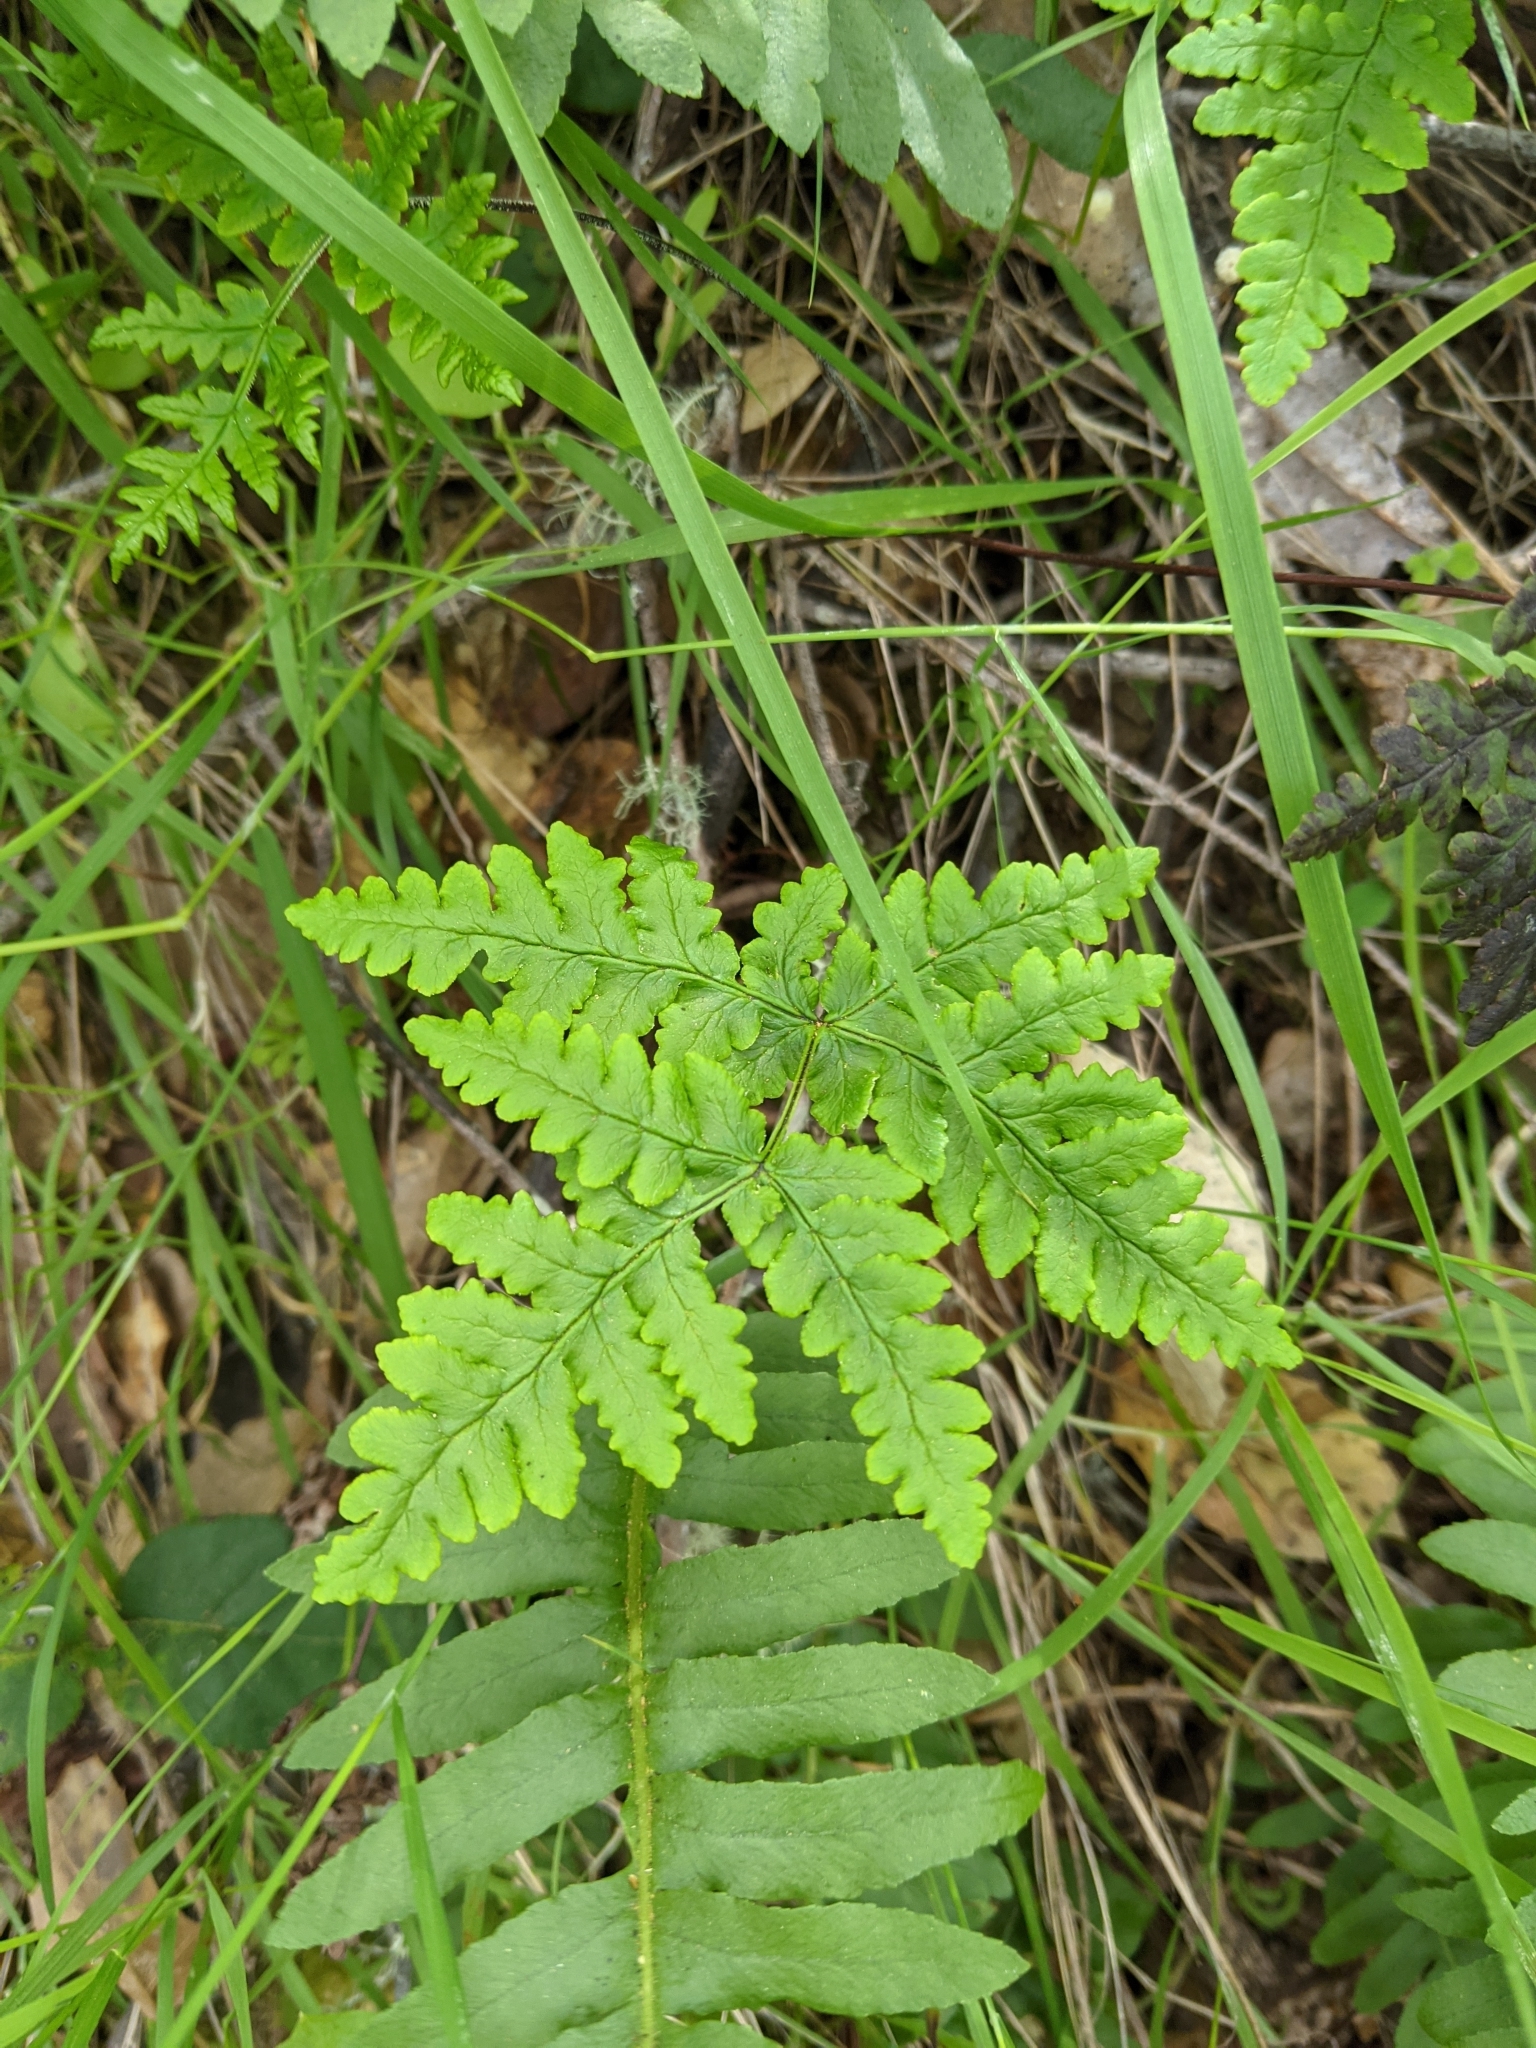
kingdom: Plantae
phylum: Tracheophyta
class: Polypodiopsida
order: Polypodiales
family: Pteridaceae
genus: Pentagramma
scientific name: Pentagramma triangularis
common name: Gold fern
